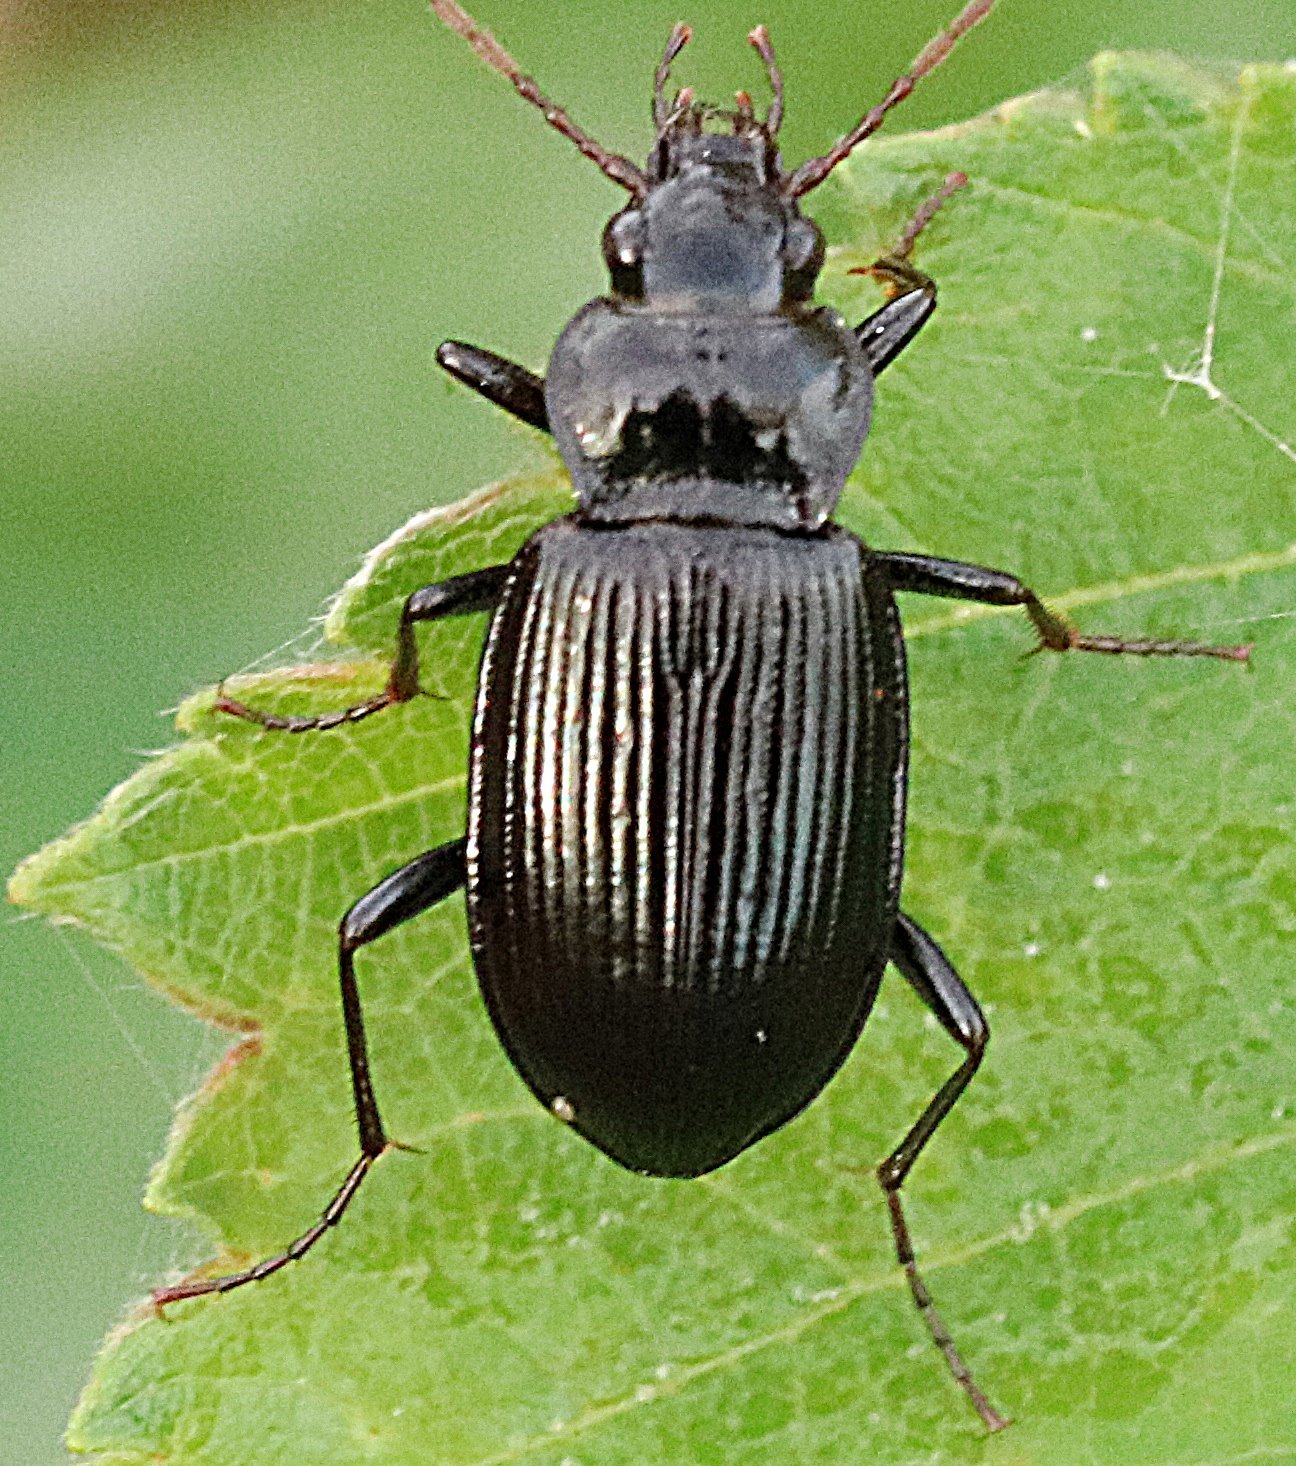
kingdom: Animalia
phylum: Arthropoda
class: Insecta
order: Coleoptera
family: Carabidae
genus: Nebria
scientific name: Nebria brevicollis
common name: Short-necked gazelle beetle
